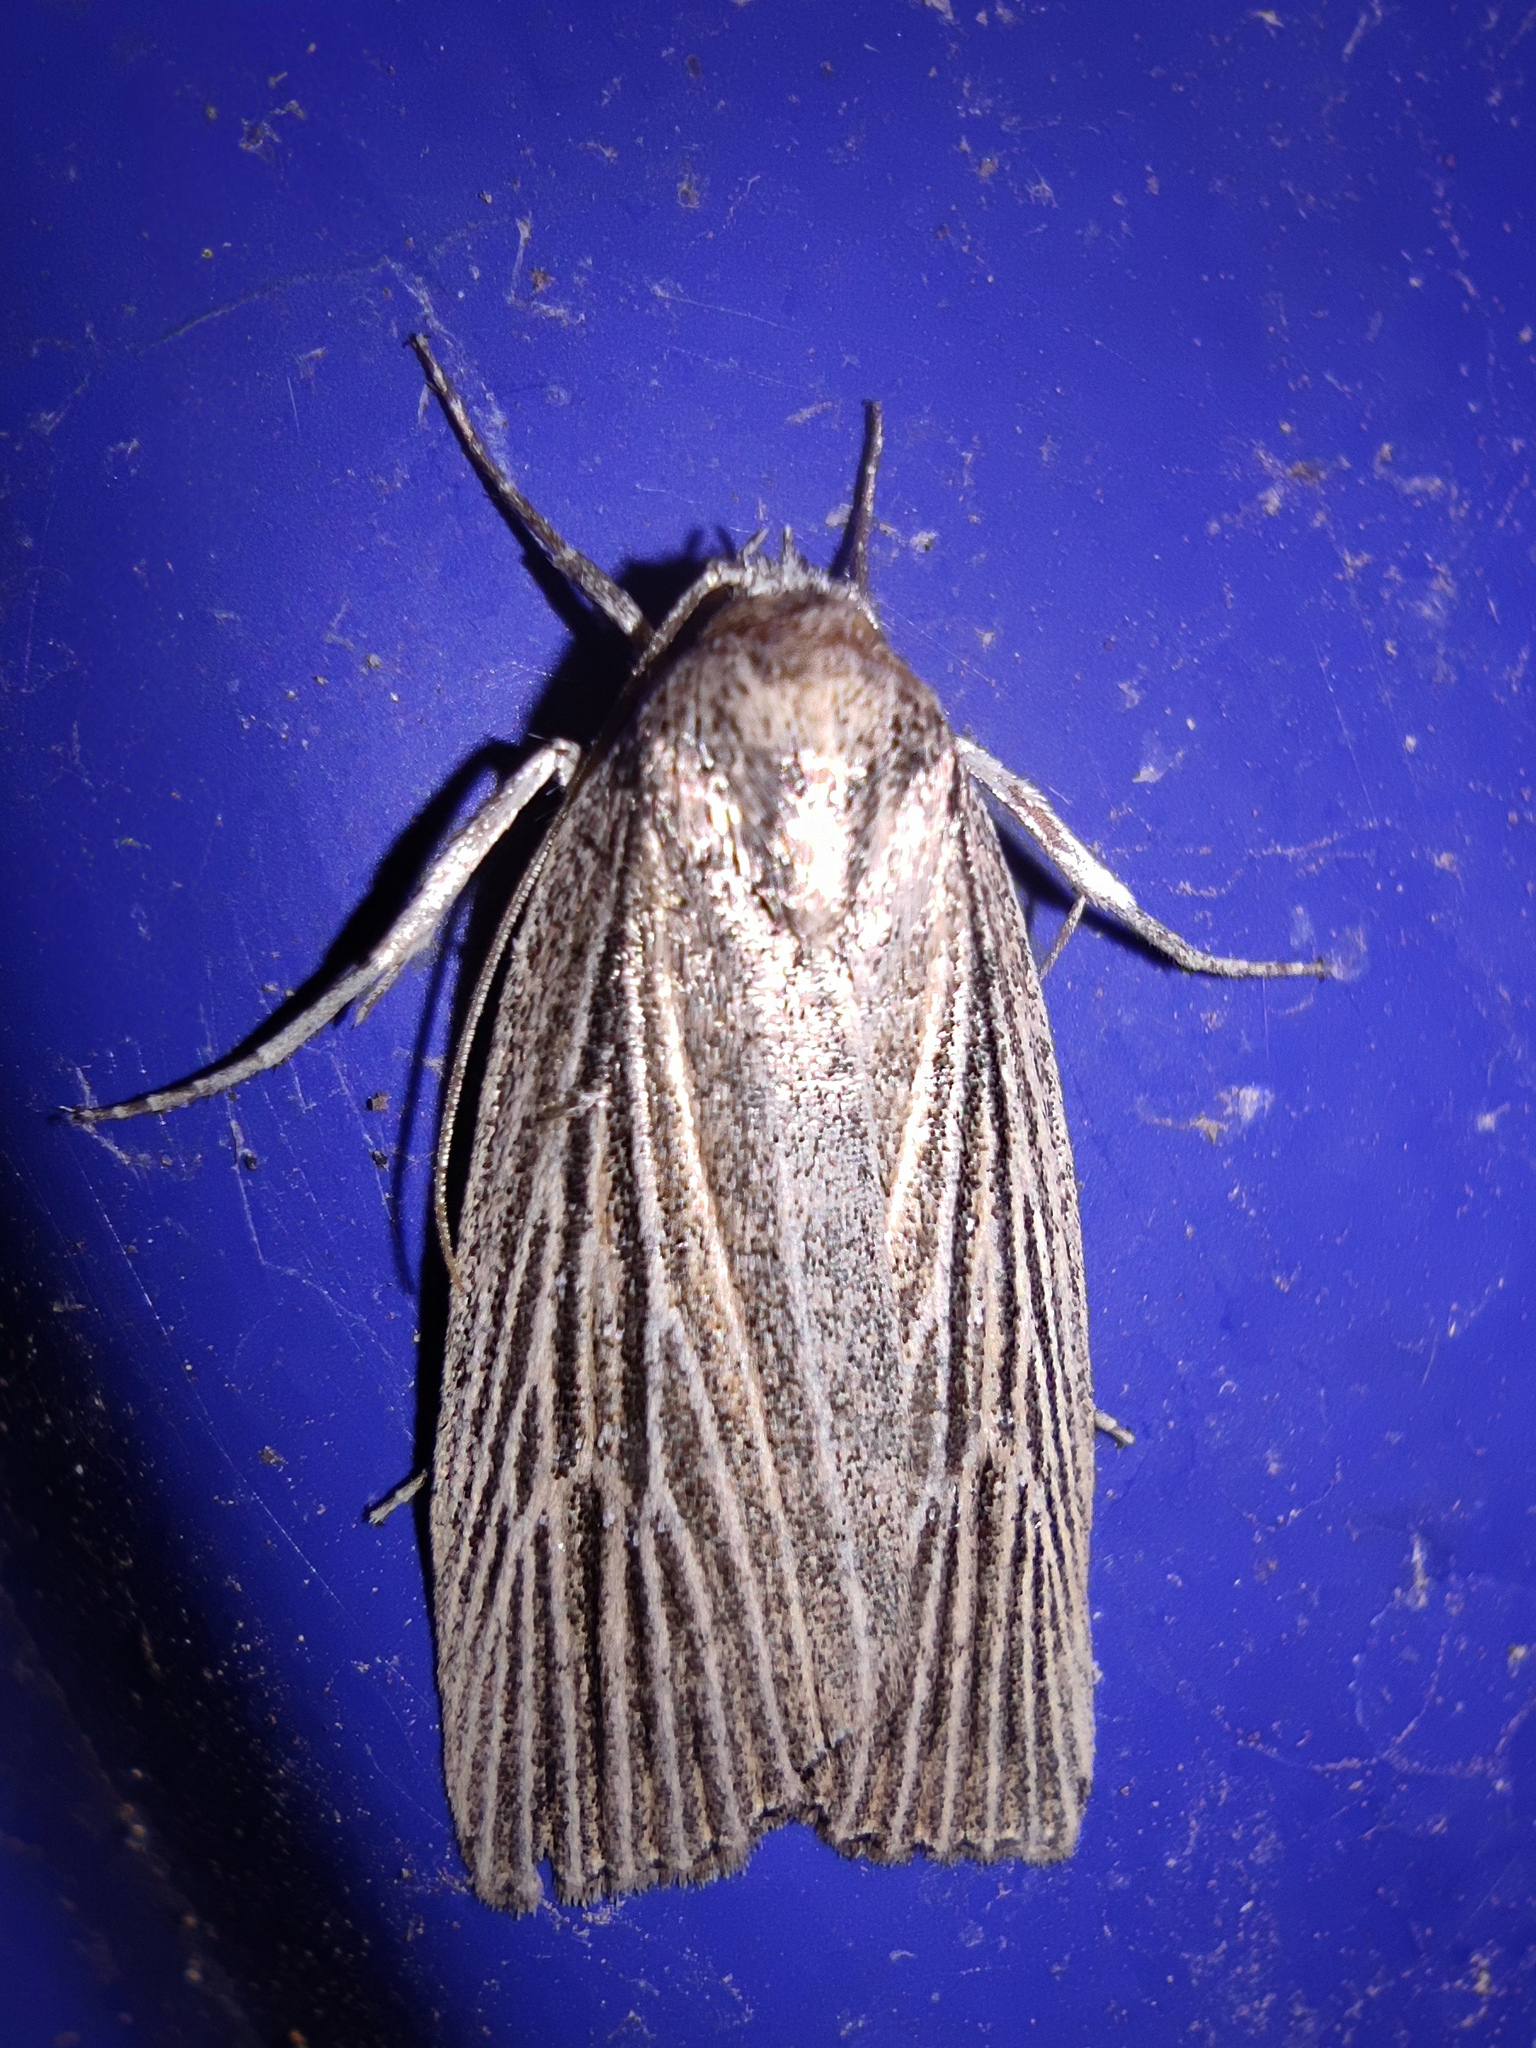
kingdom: Animalia
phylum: Arthropoda
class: Insecta
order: Lepidoptera
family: Noctuidae
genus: Chilodes
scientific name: Chilodes maritima
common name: Silky wainscot
